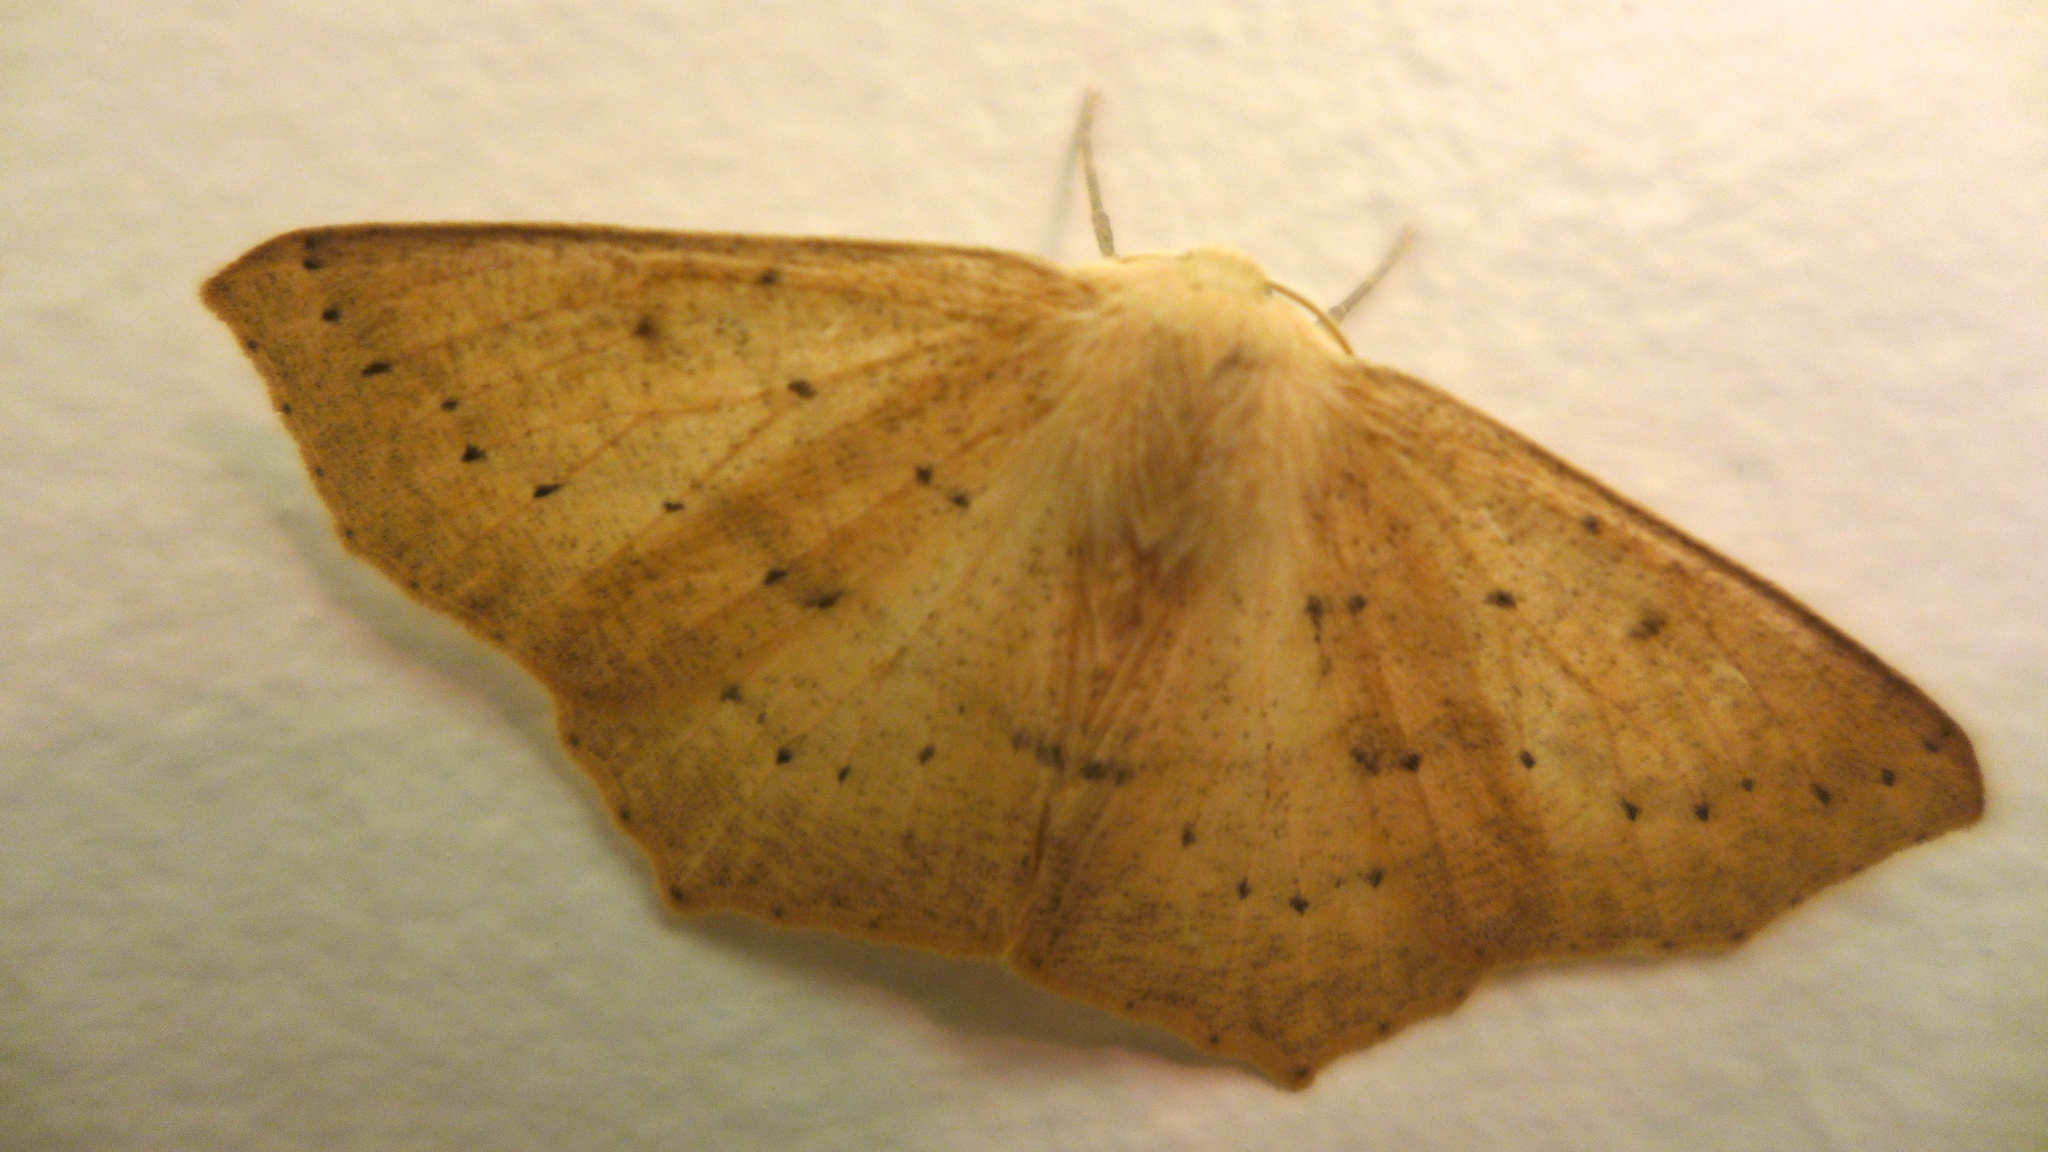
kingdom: Animalia
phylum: Arthropoda
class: Insecta
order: Lepidoptera
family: Geometridae
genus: Sabulodes
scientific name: Sabulodes aegrotata
